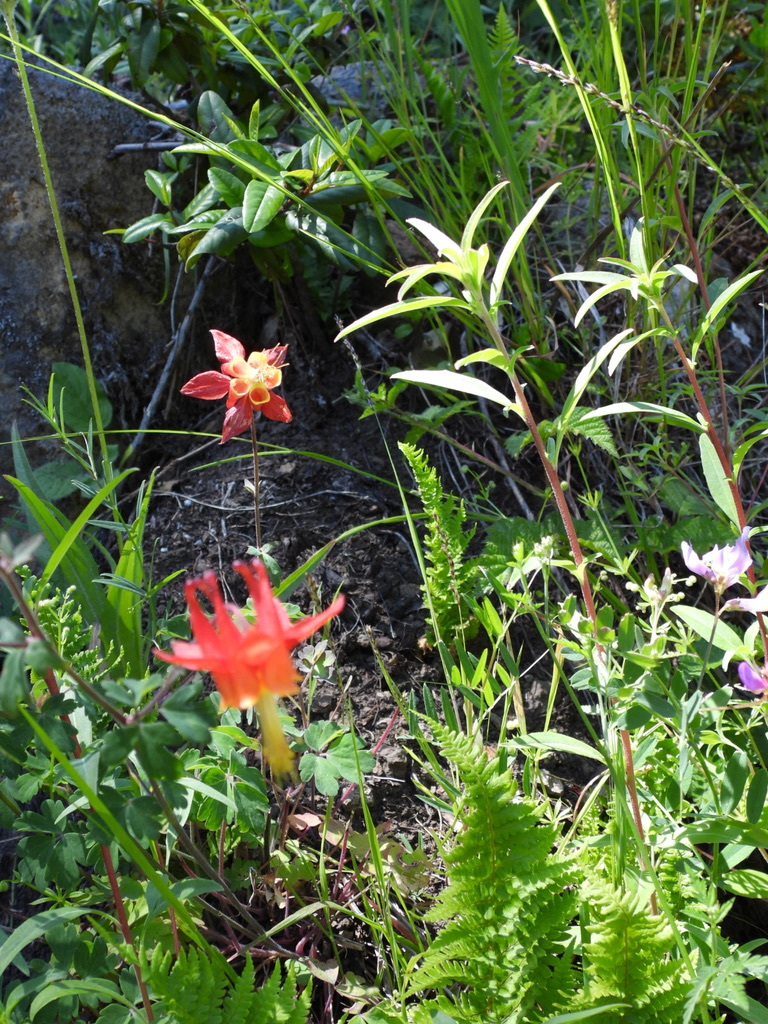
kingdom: Plantae
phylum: Tracheophyta
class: Magnoliopsida
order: Ranunculales
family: Ranunculaceae
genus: Aquilegia
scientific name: Aquilegia formosa
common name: Sitka columbine
